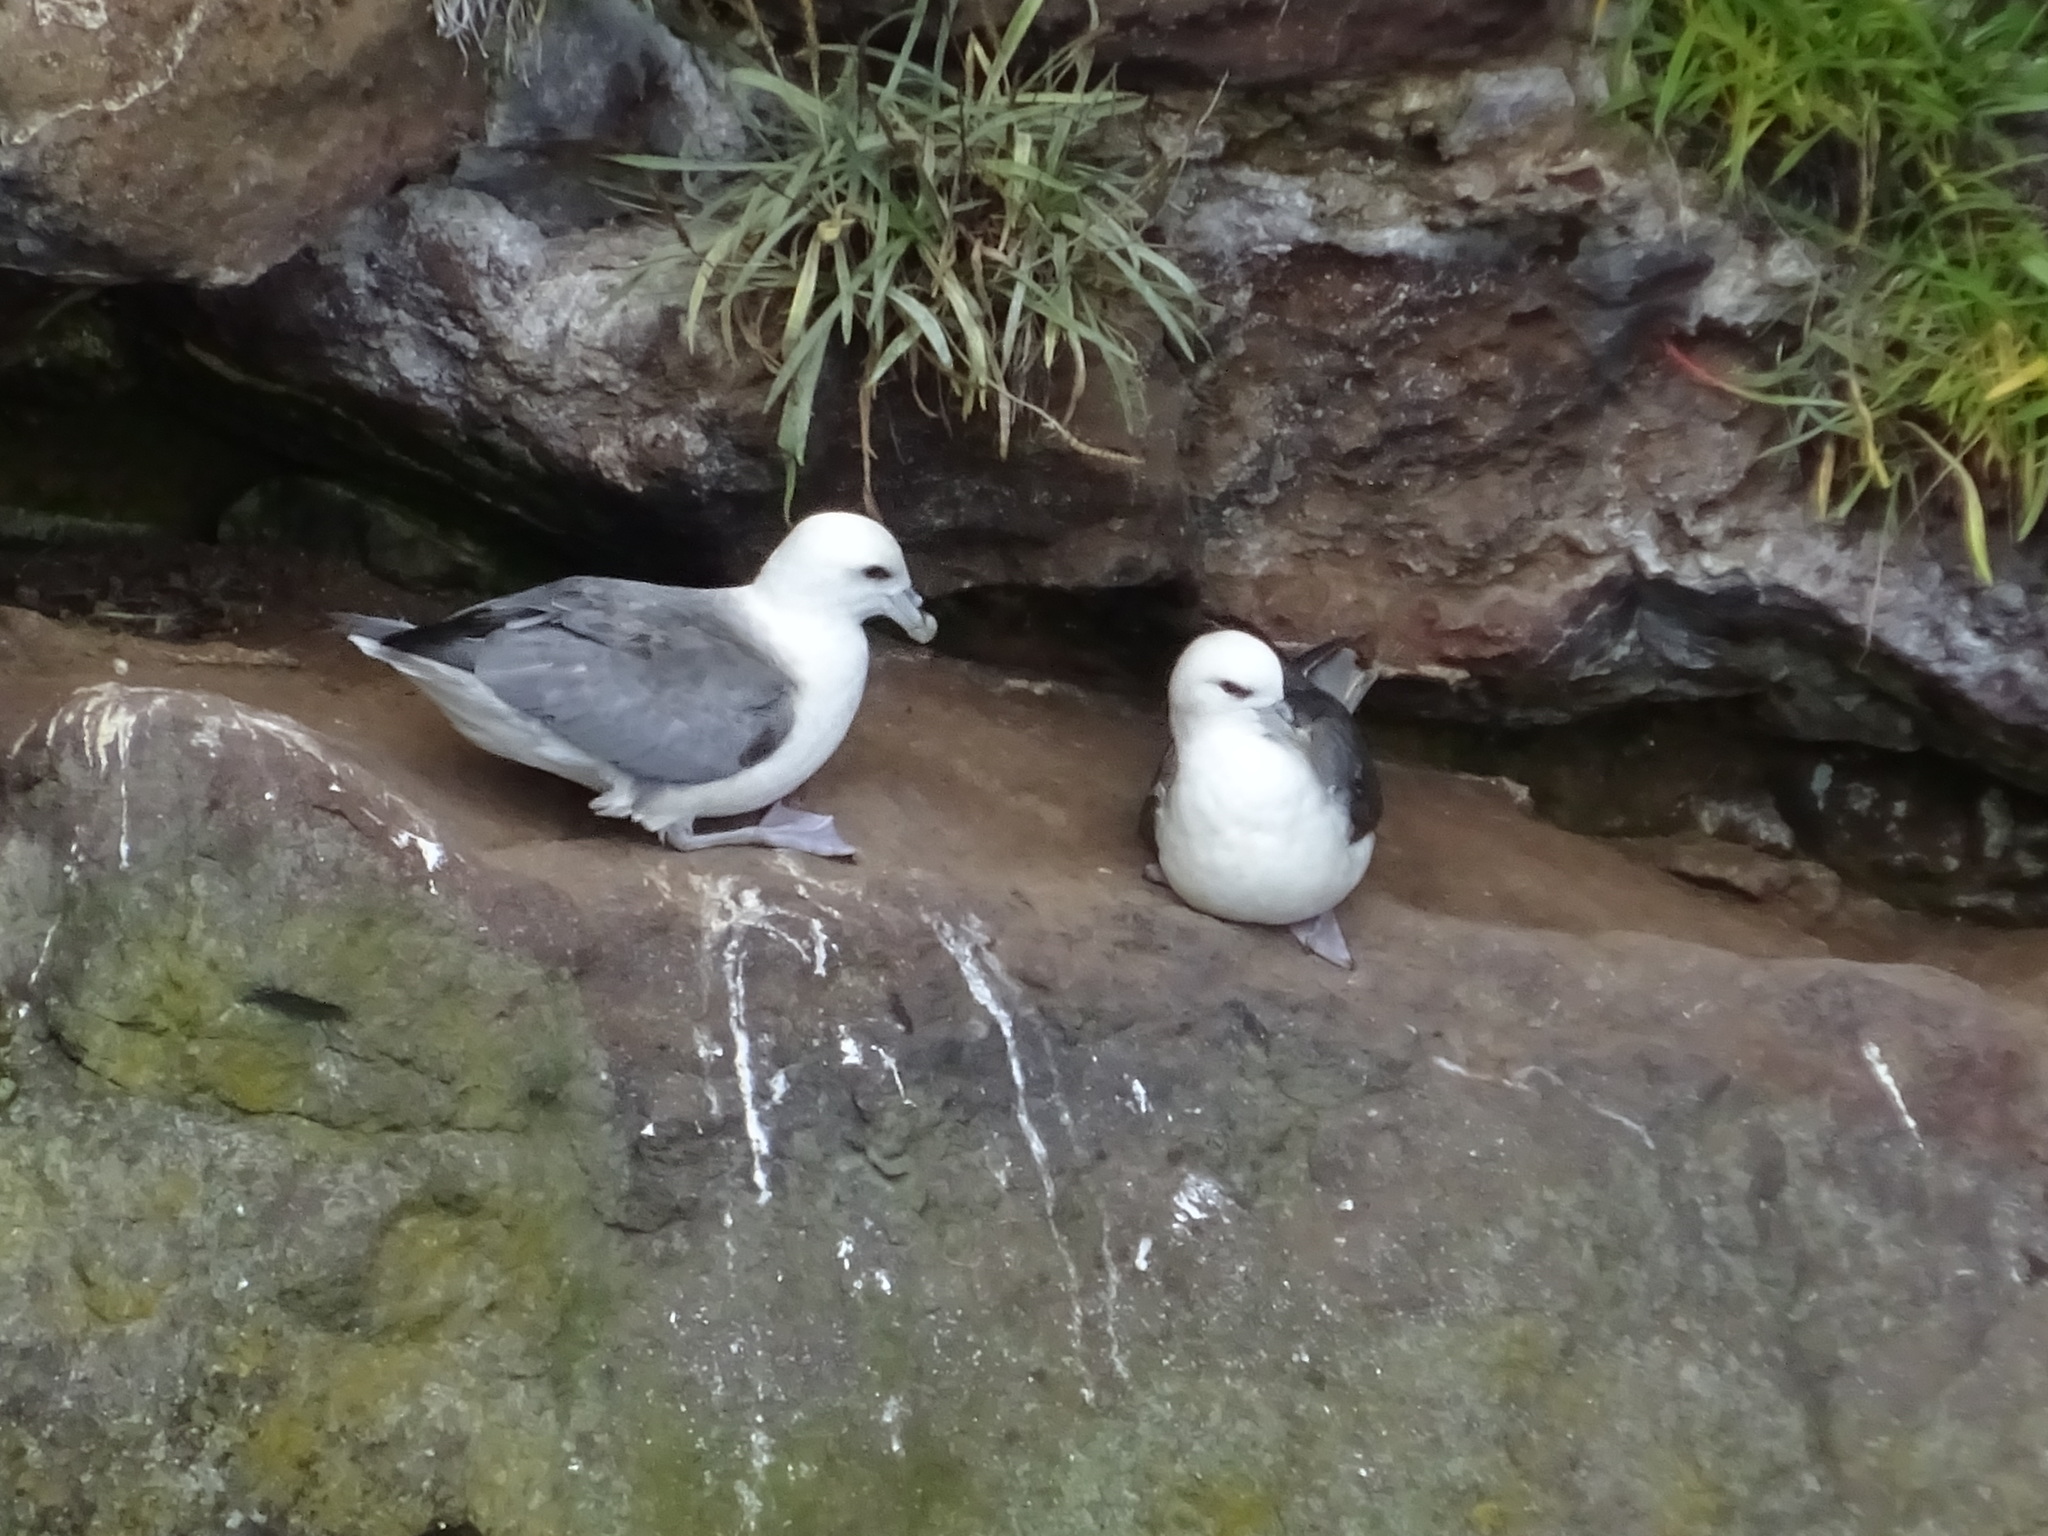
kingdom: Animalia
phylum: Chordata
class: Aves
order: Procellariiformes
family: Procellariidae
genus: Fulmarus
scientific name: Fulmarus glacialis
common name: Northern fulmar
